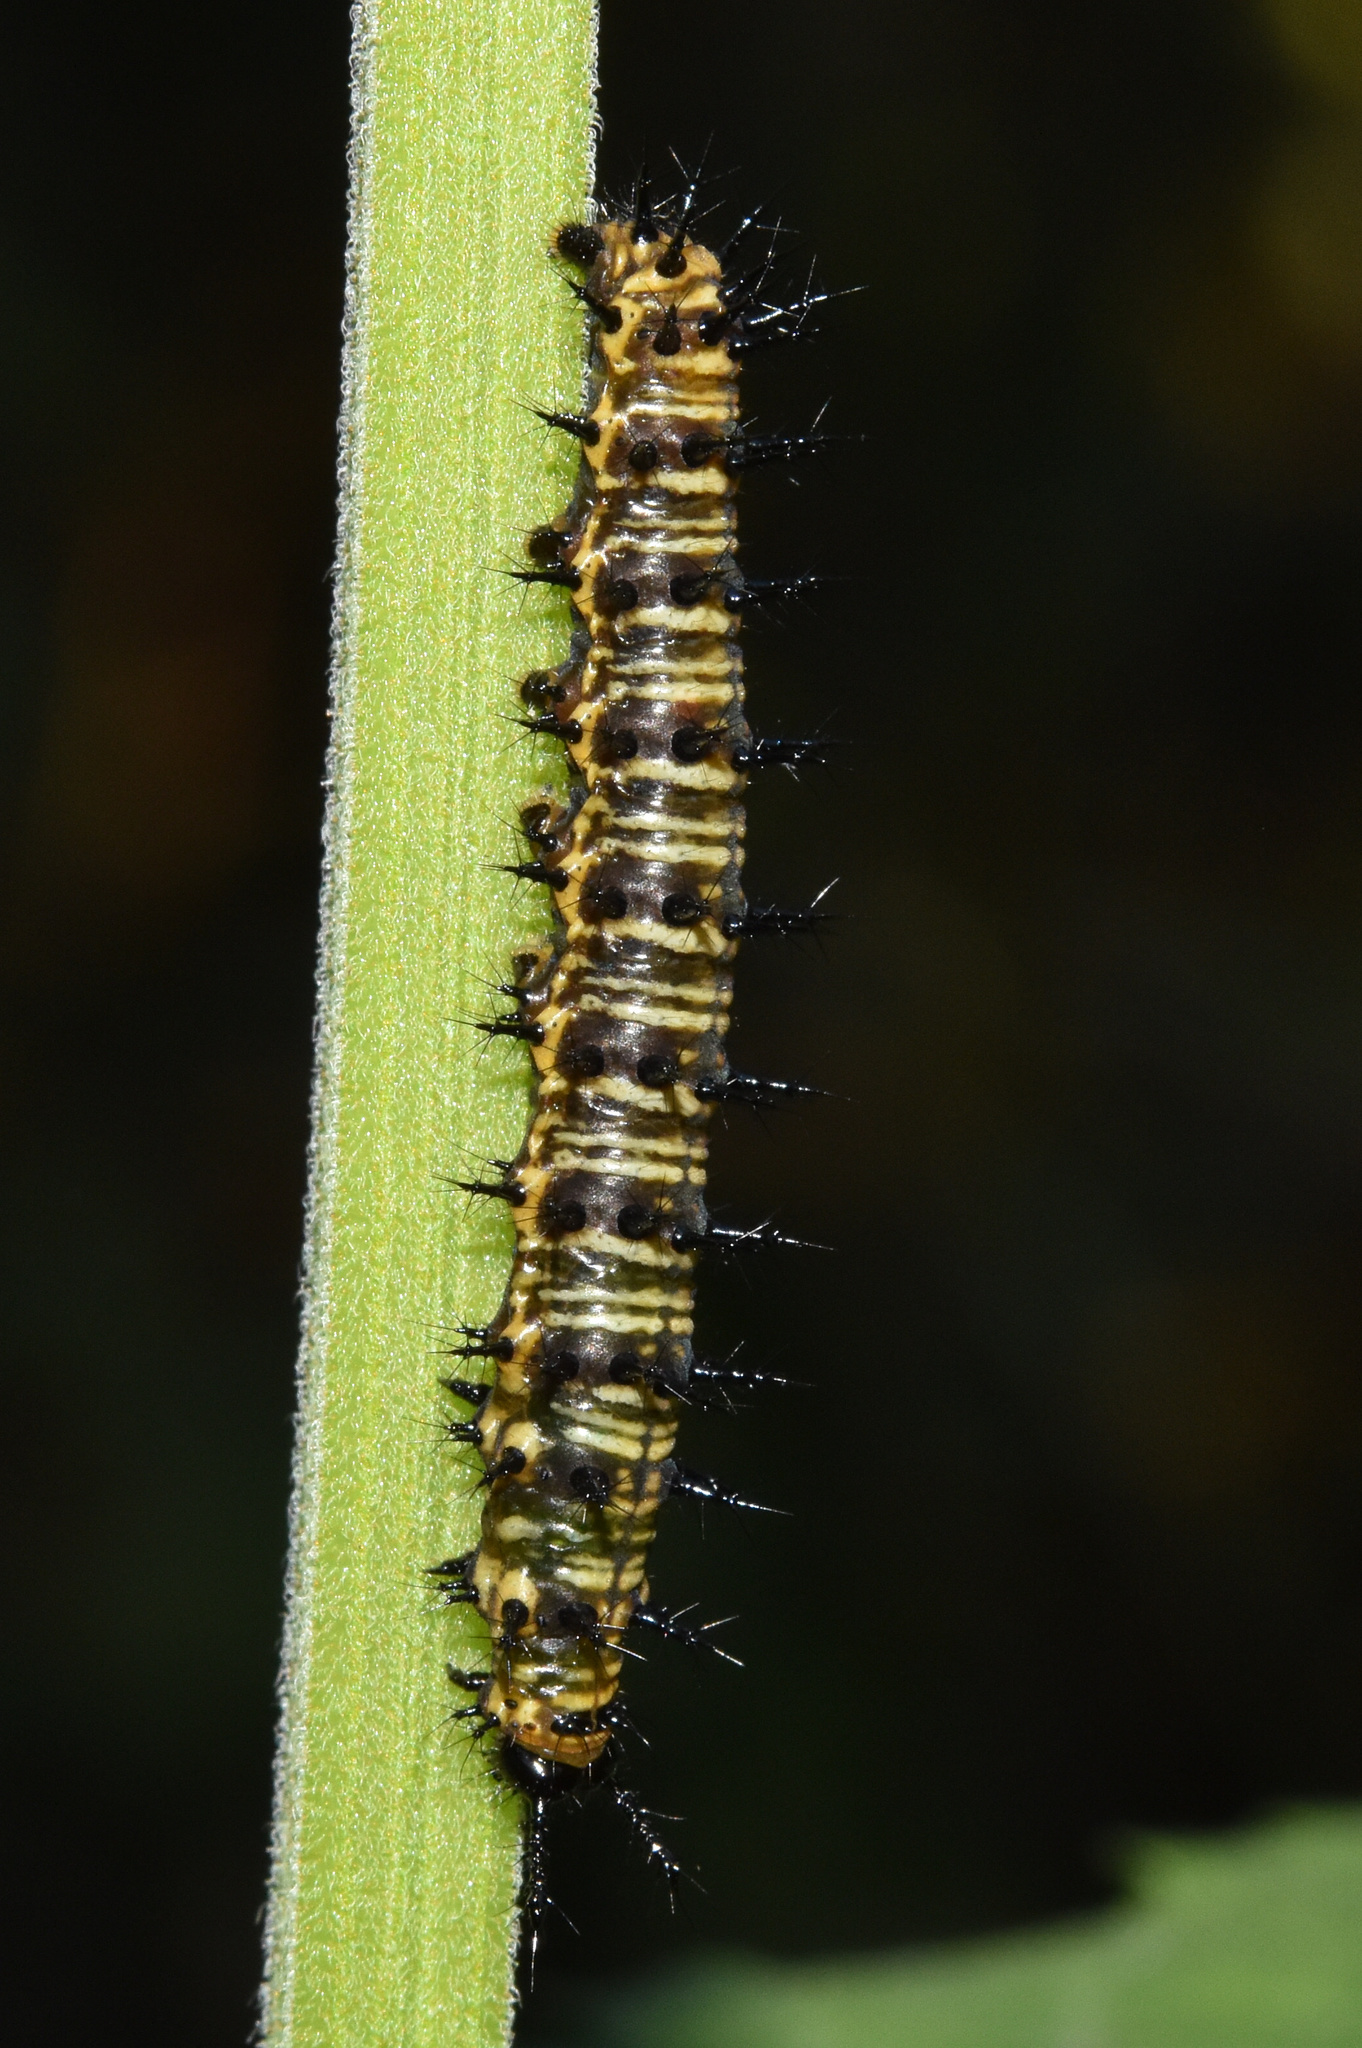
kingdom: Animalia
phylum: Arthropoda
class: Insecta
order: Lepidoptera
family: Nymphalidae
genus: Precis
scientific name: Precis octavia
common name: Gaudy commodore
